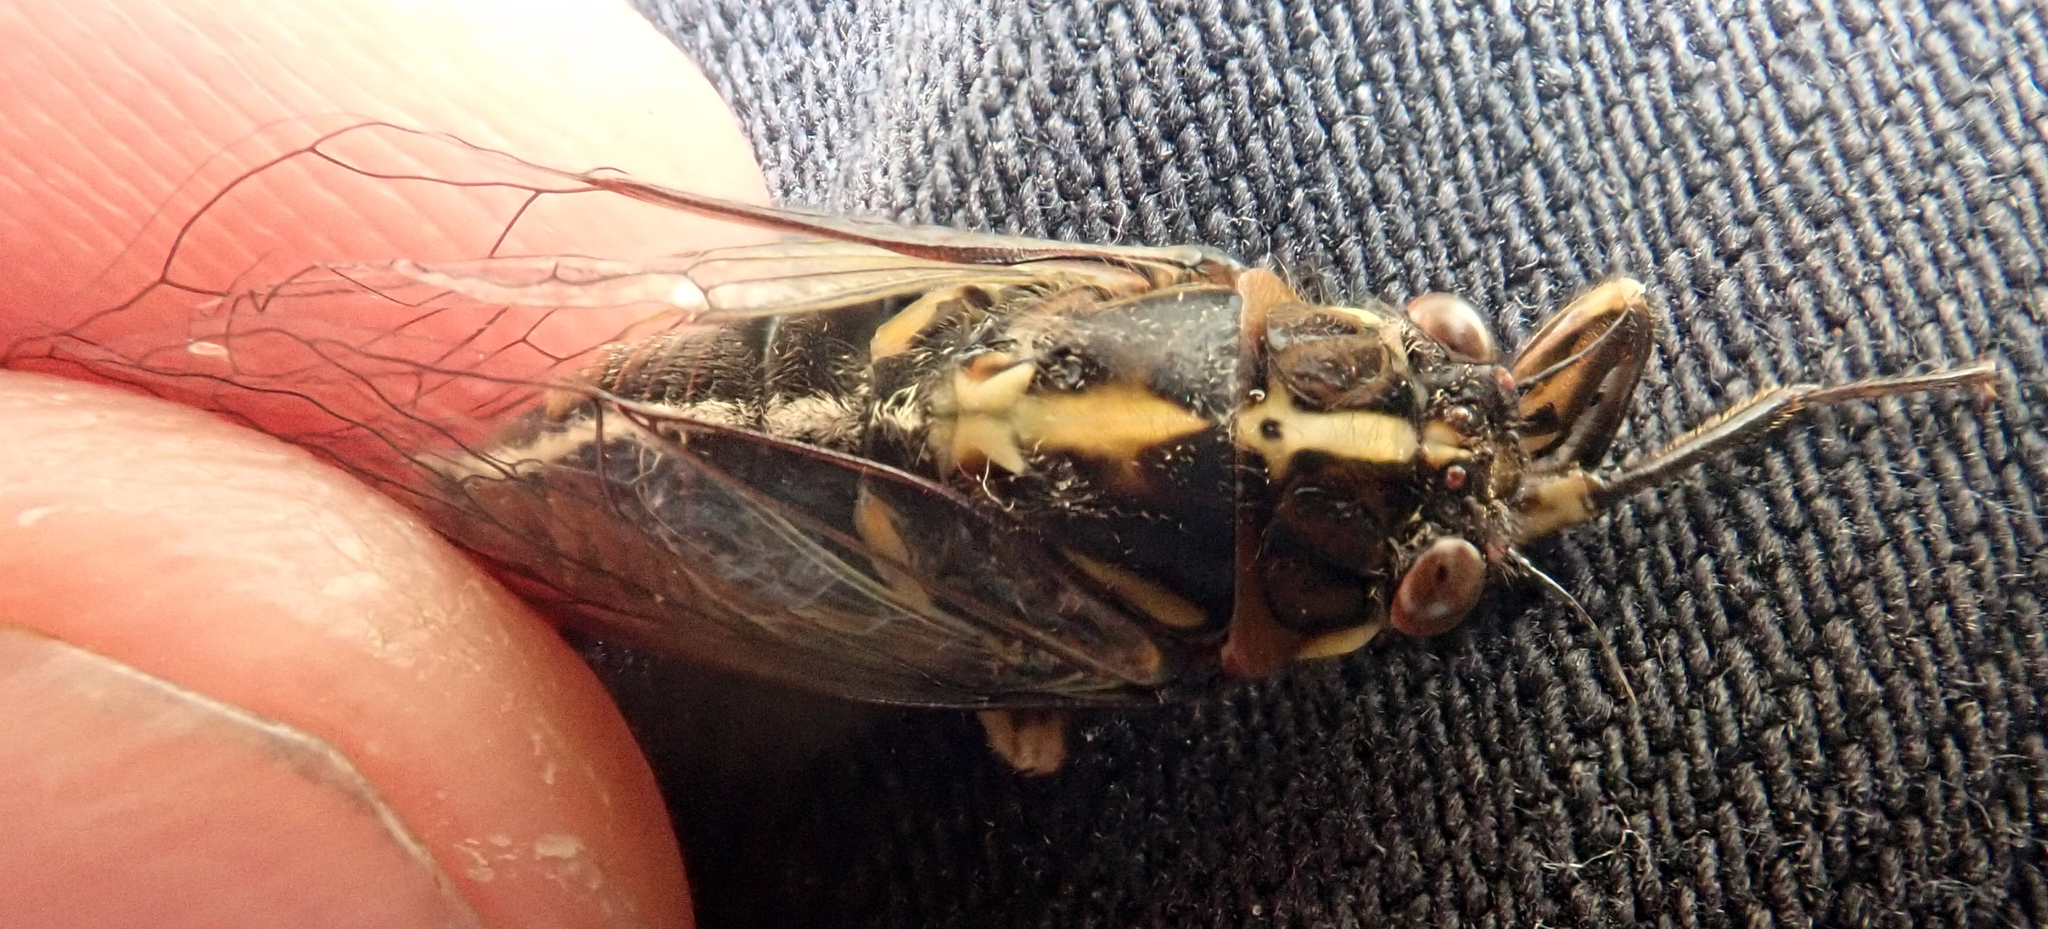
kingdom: Animalia
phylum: Arthropoda
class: Insecta
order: Hemiptera
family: Cicadidae
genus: Kikihia
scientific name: Kikihia longula
